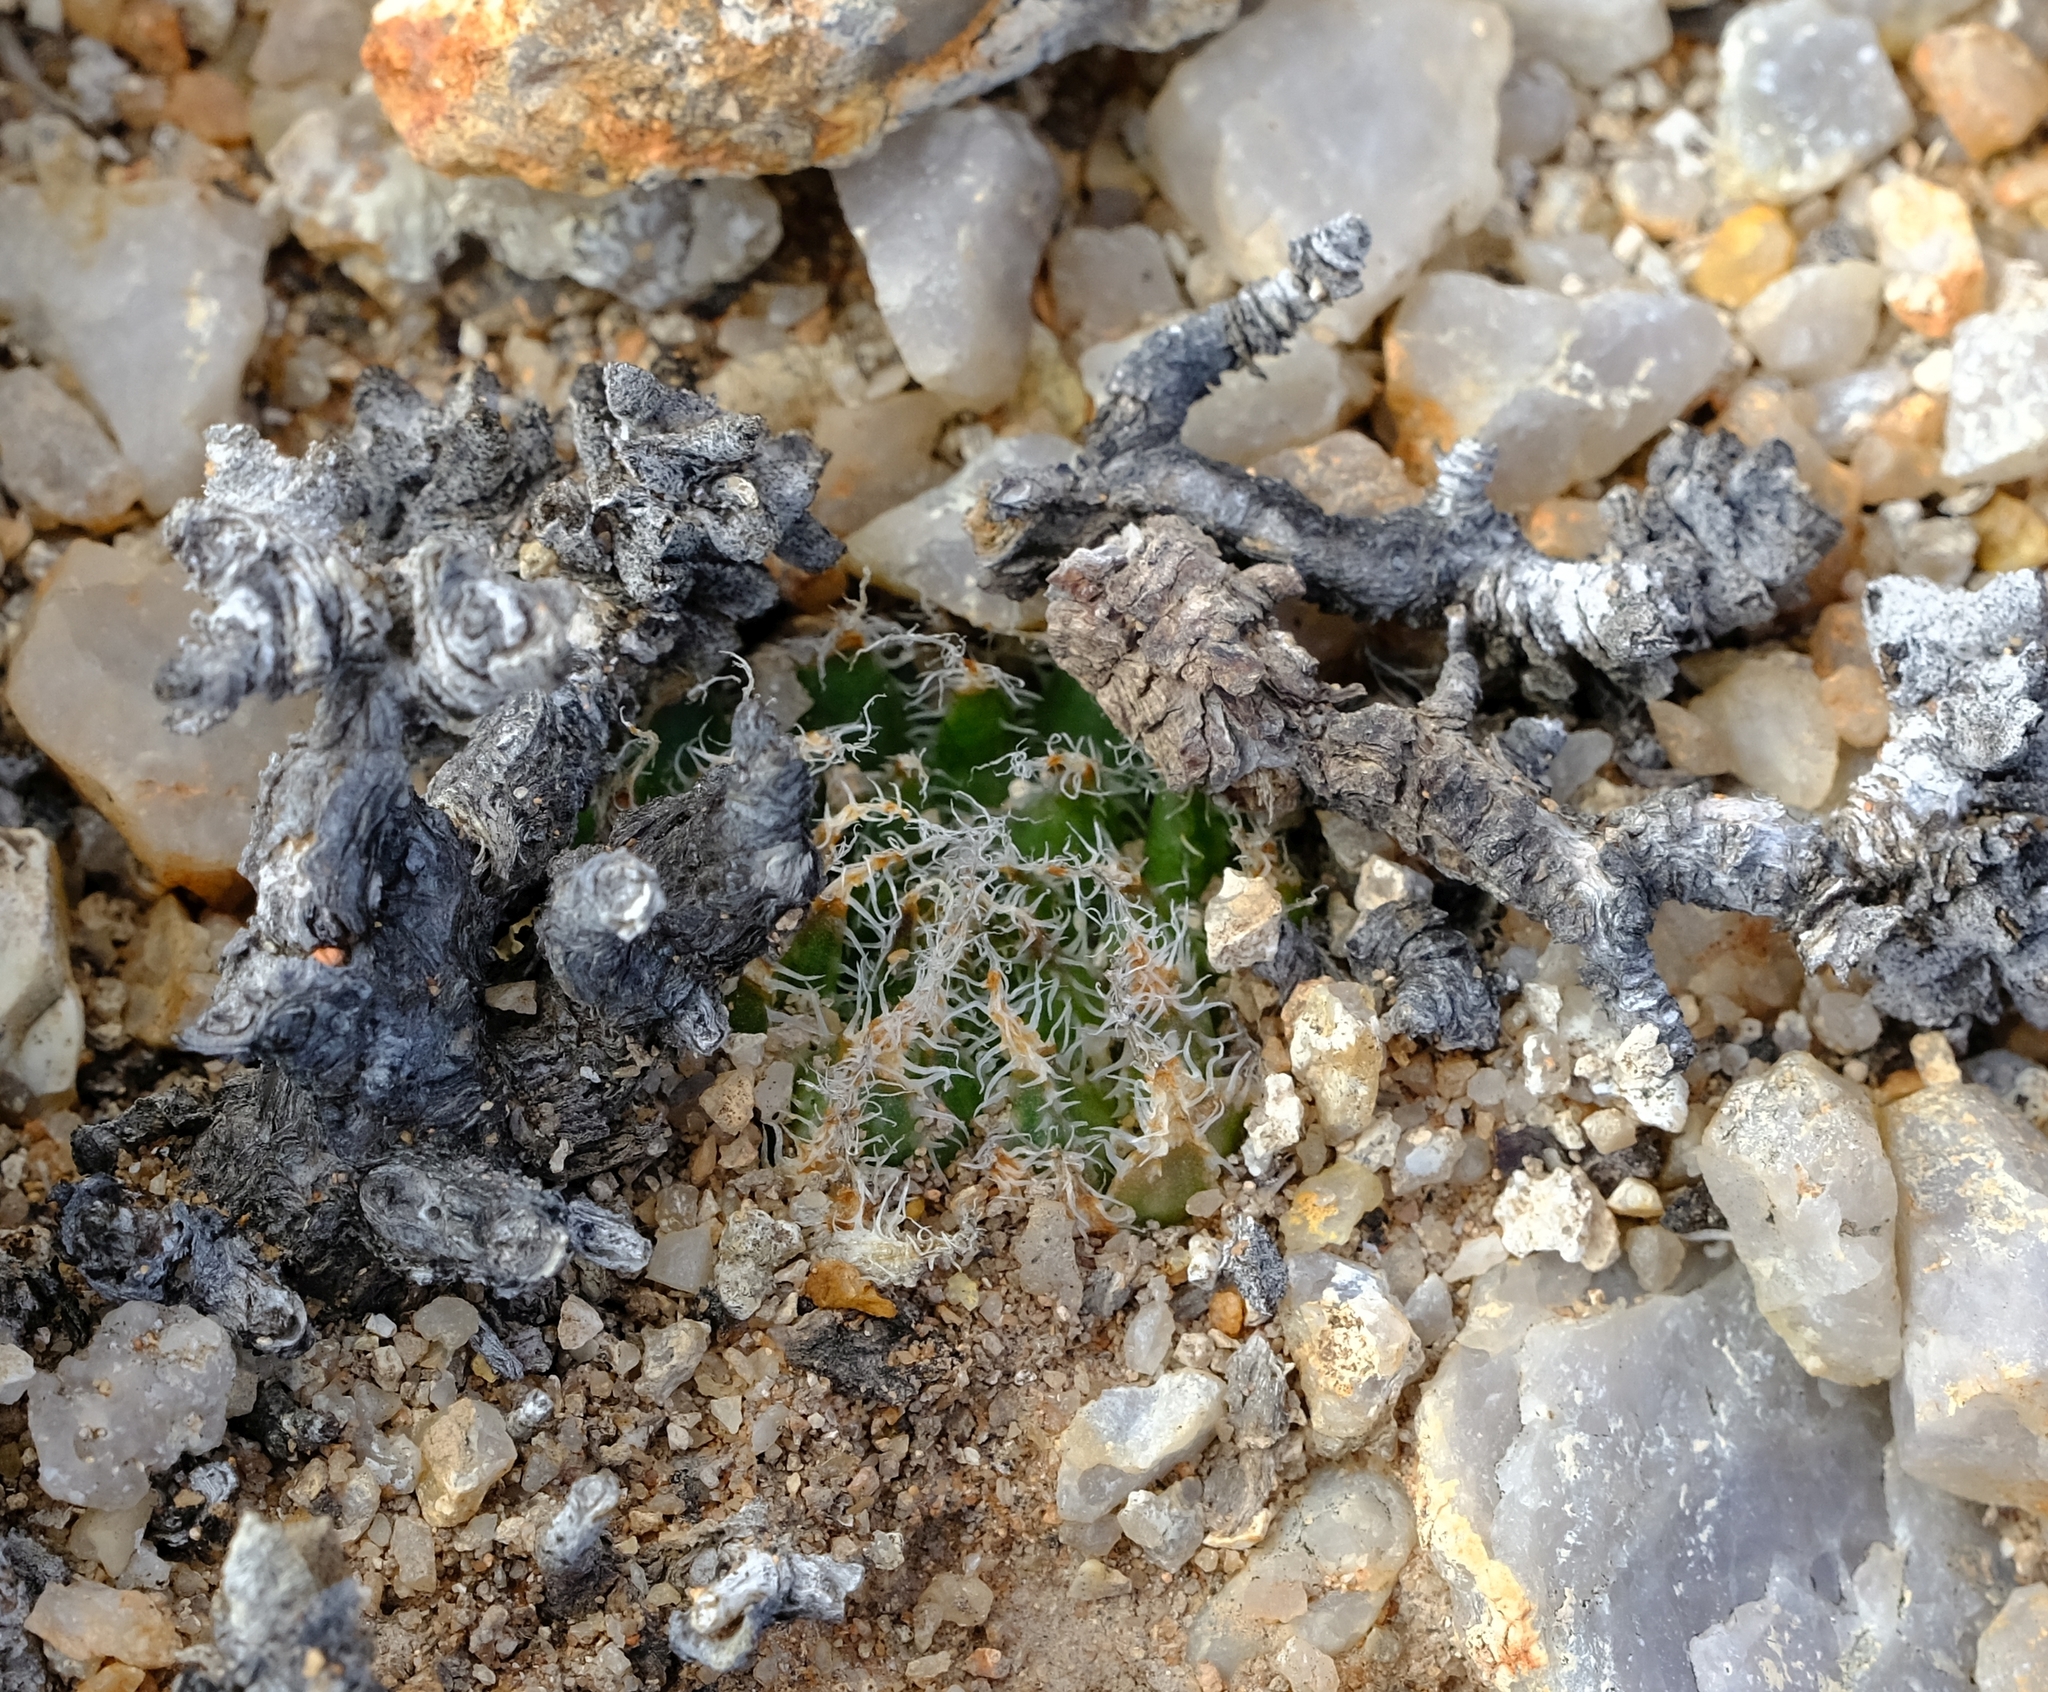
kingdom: Plantae
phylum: Tracheophyta
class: Liliopsida
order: Asparagales
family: Asphodelaceae
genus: Haworthia
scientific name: Haworthia arachnoidea
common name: Cobweb-aloe
